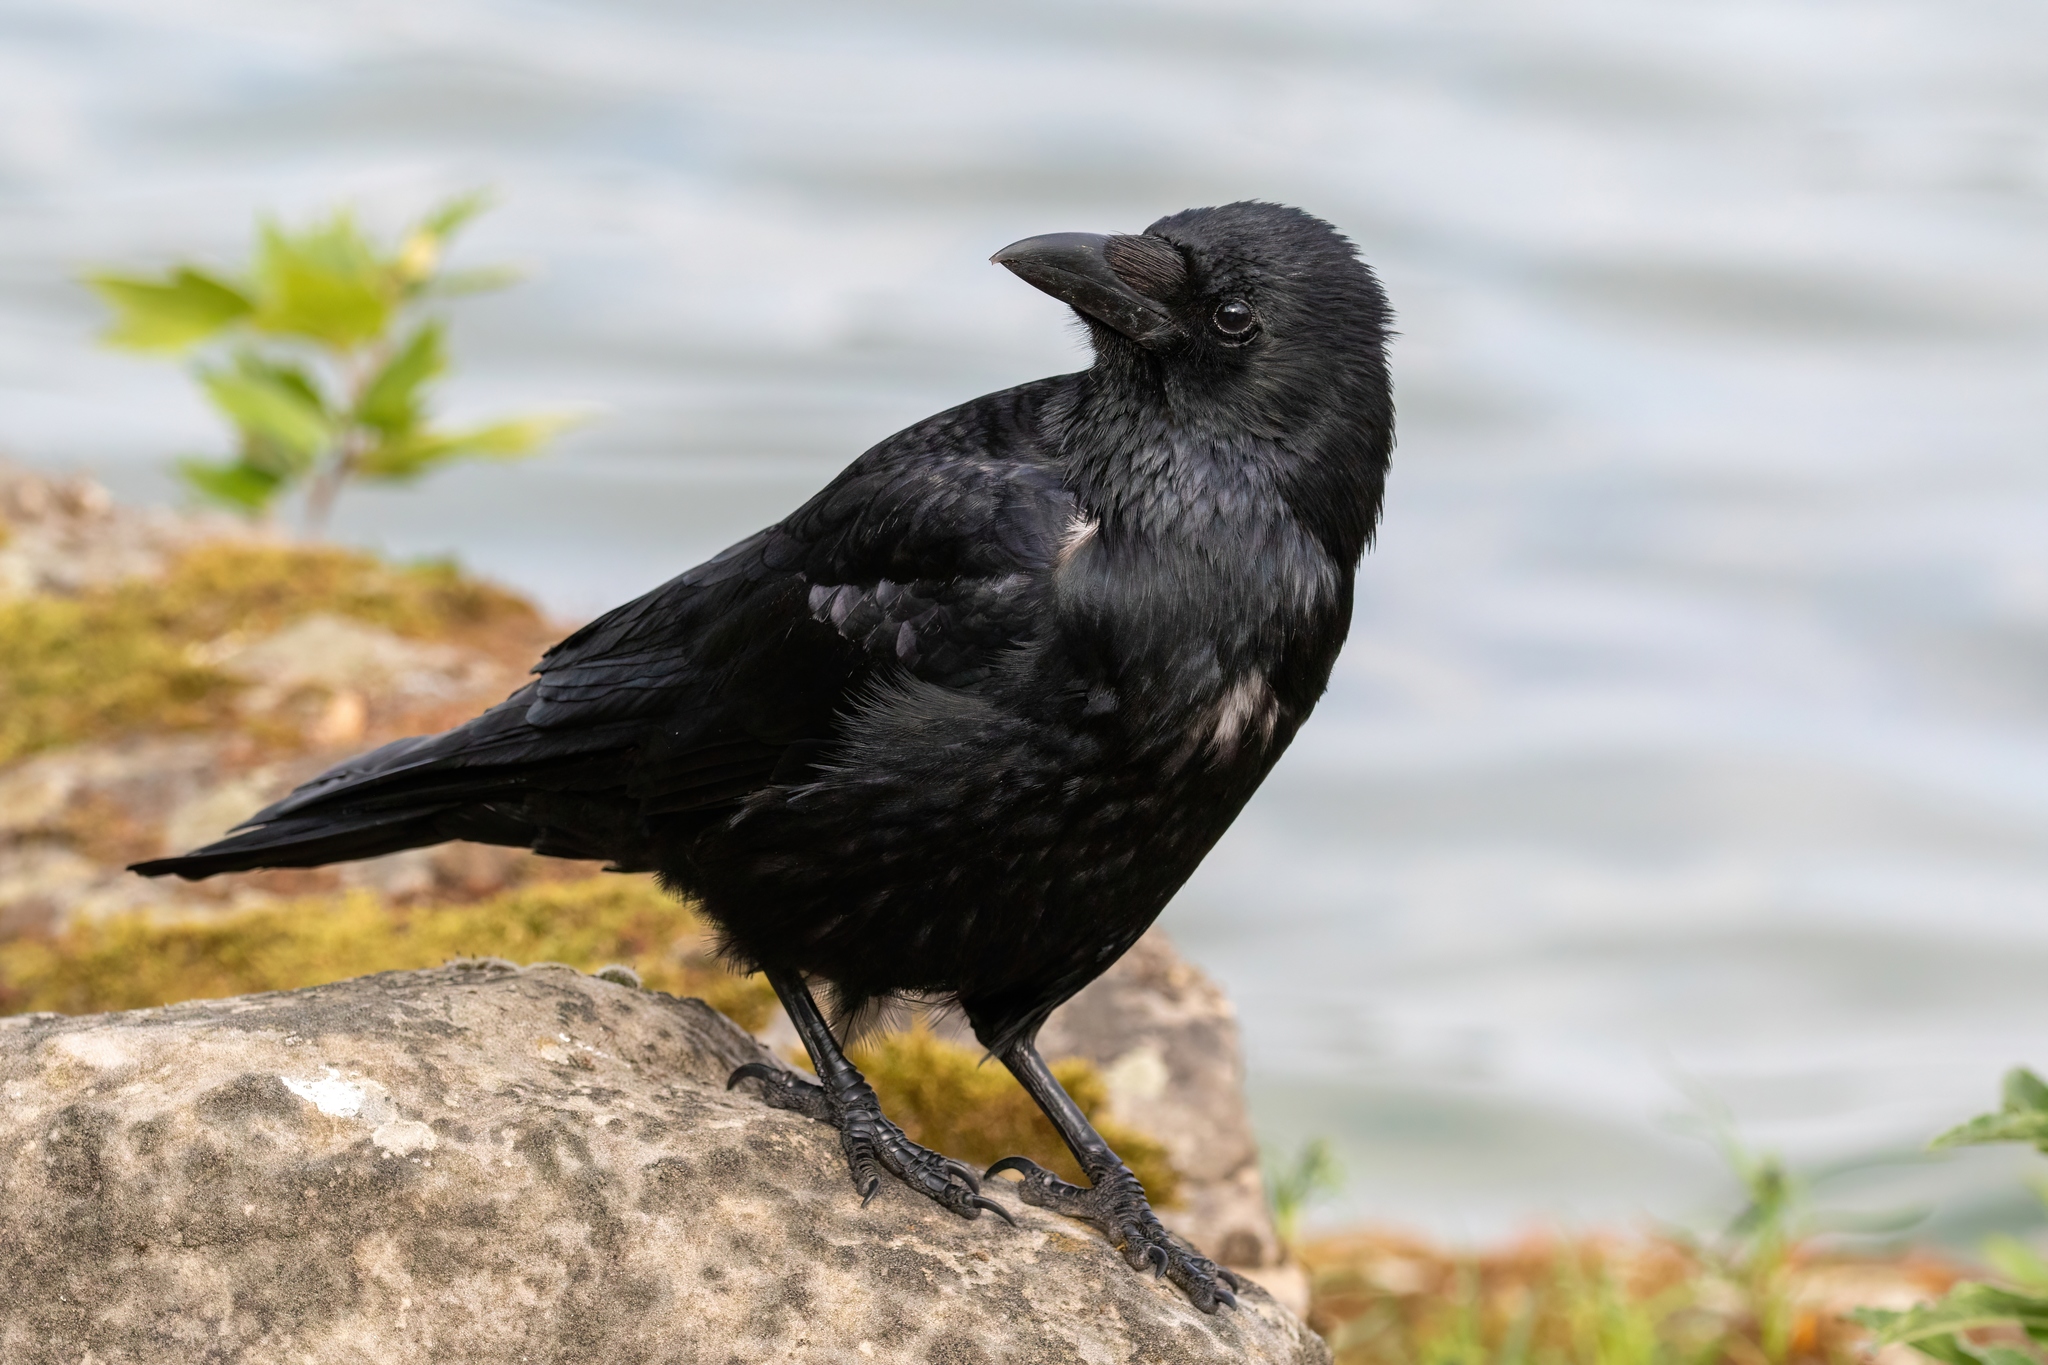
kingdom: Animalia
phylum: Chordata
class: Aves
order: Passeriformes
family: Corvidae
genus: Corvus
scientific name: Corvus corone
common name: Carrion crow
